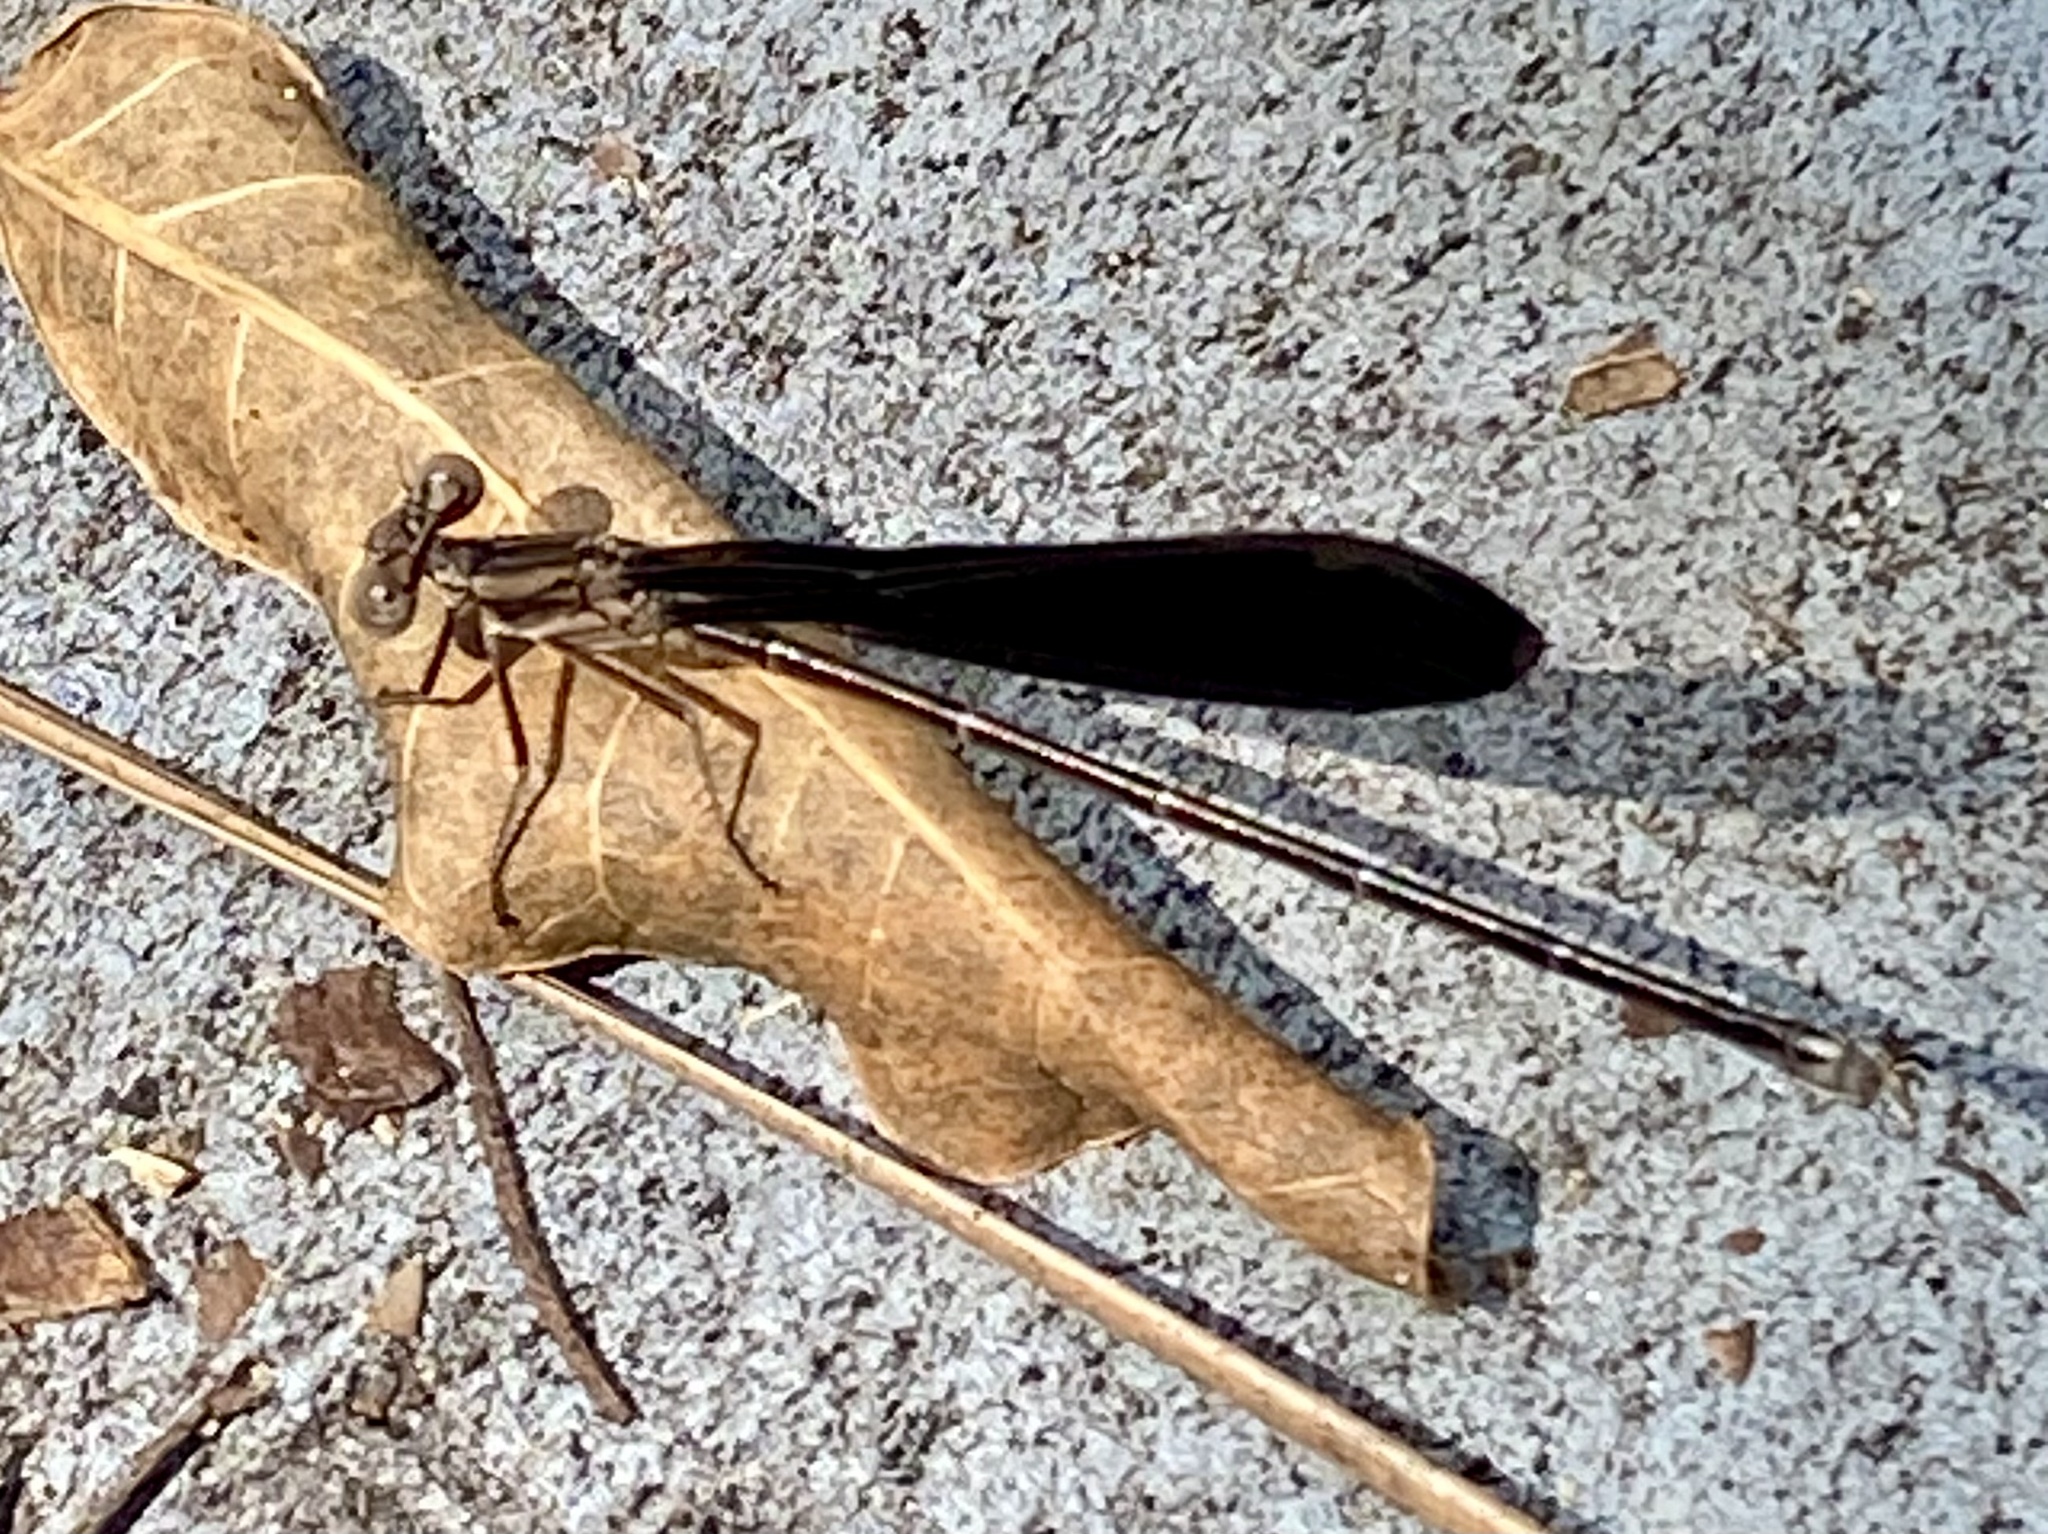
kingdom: Animalia
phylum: Arthropoda
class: Insecta
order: Odonata
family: Coenagrionidae
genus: Argia
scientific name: Argia fumipennis
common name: Variable dancer
